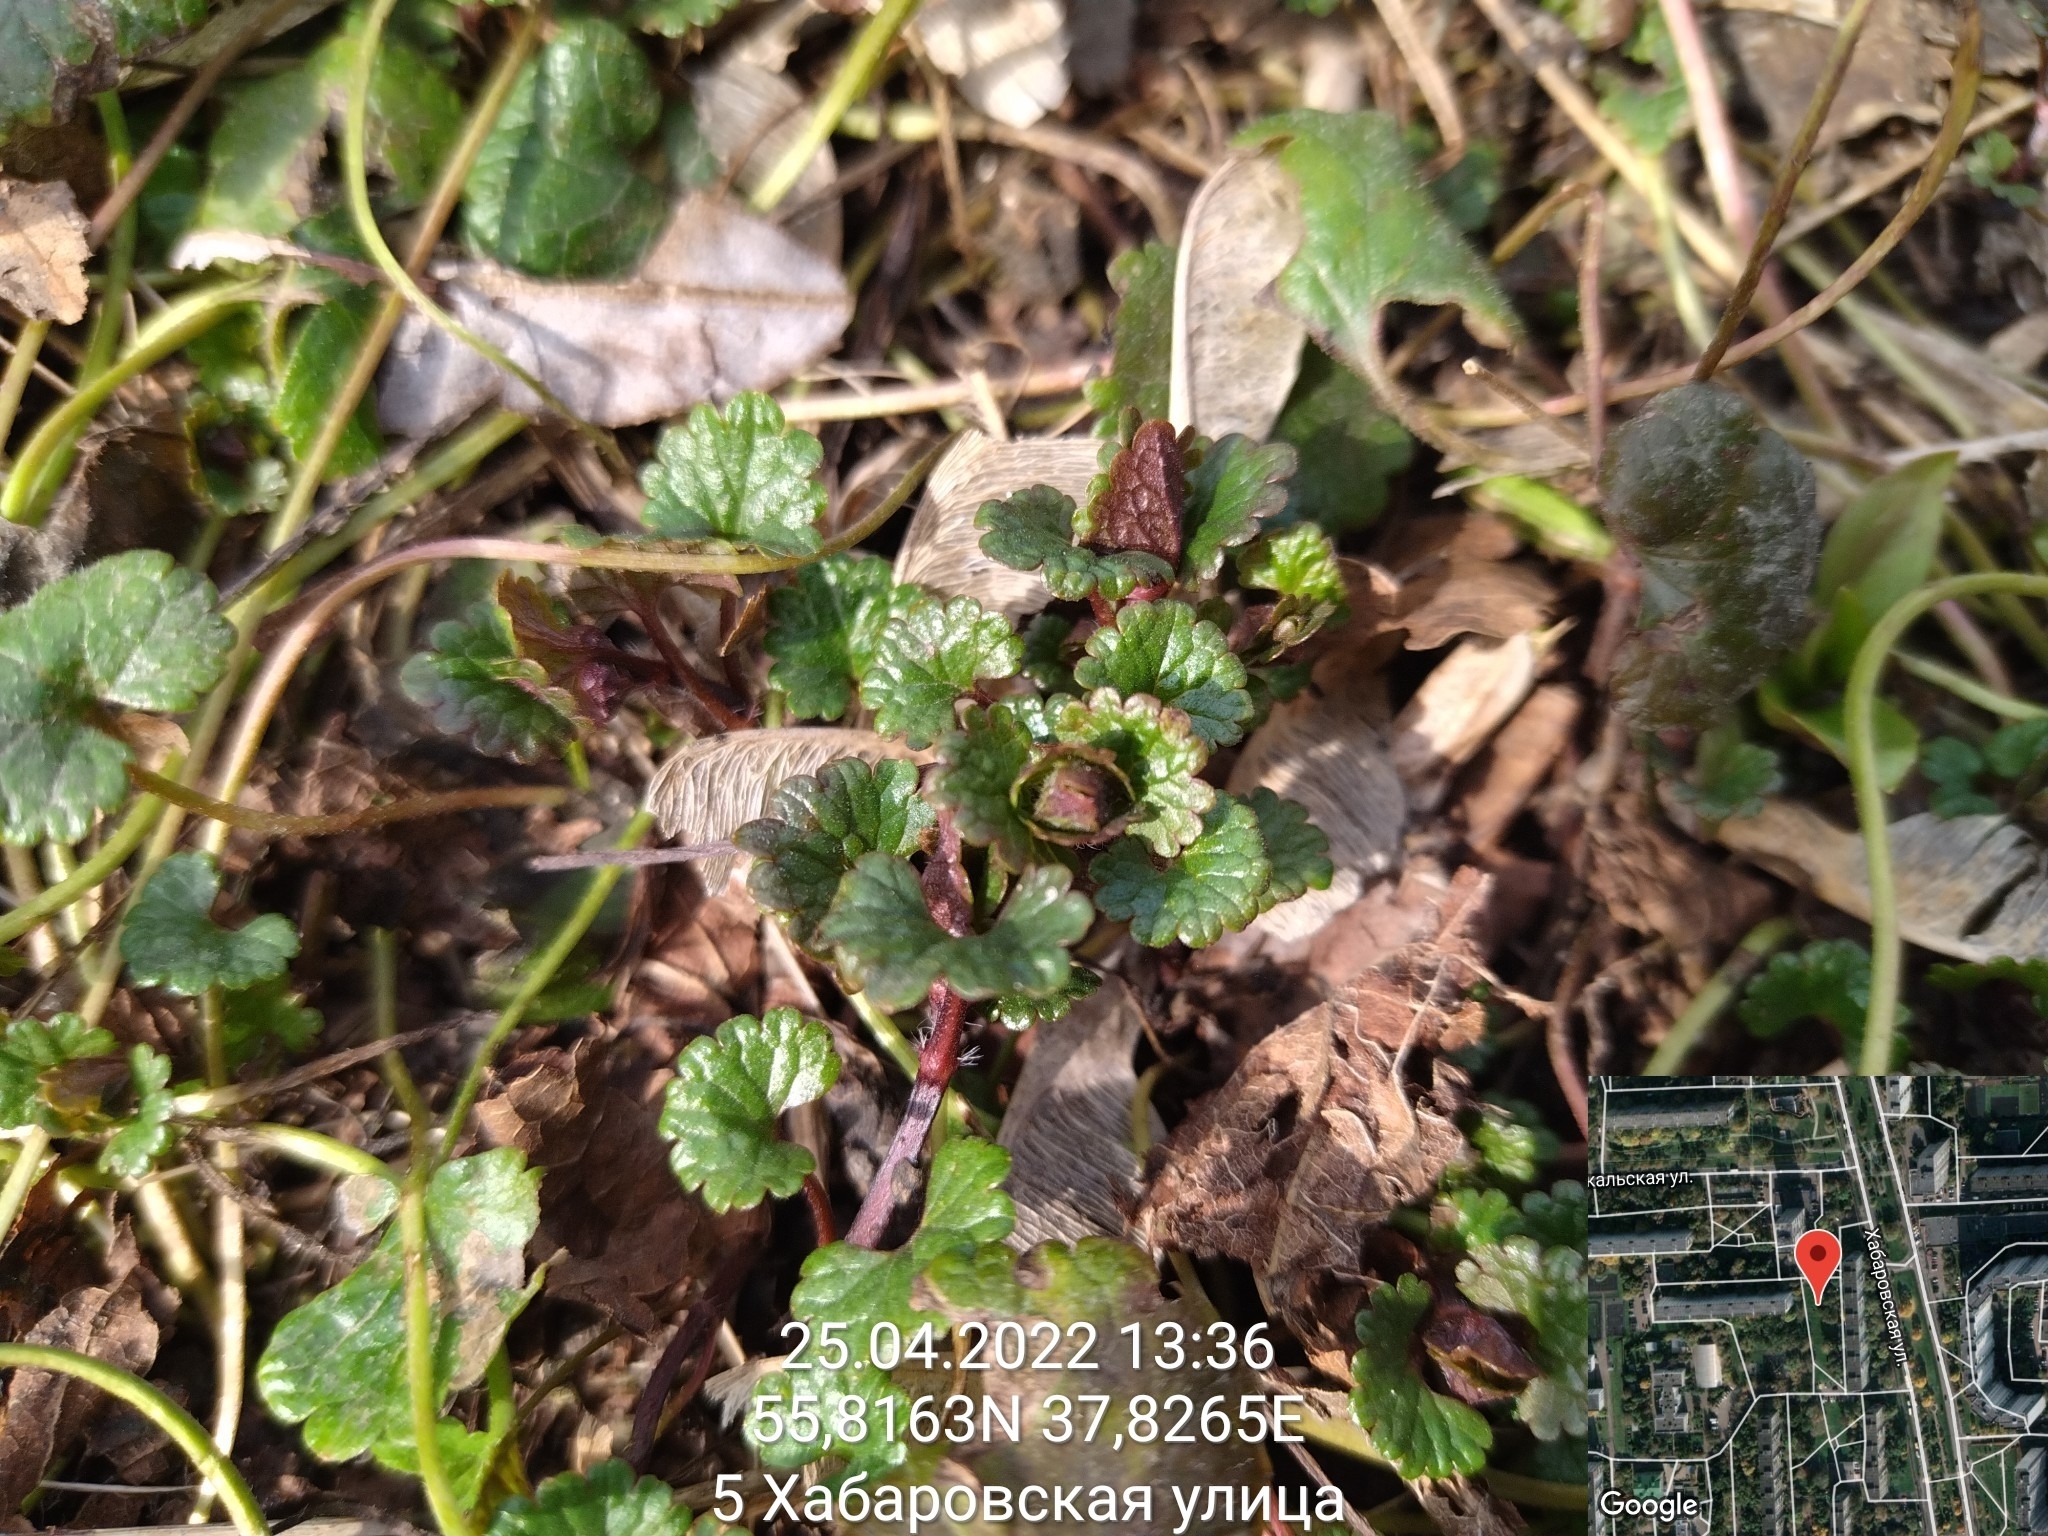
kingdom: Plantae
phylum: Tracheophyta
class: Magnoliopsida
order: Lamiales
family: Lamiaceae
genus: Glechoma
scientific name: Glechoma hederacea
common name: Ground ivy
